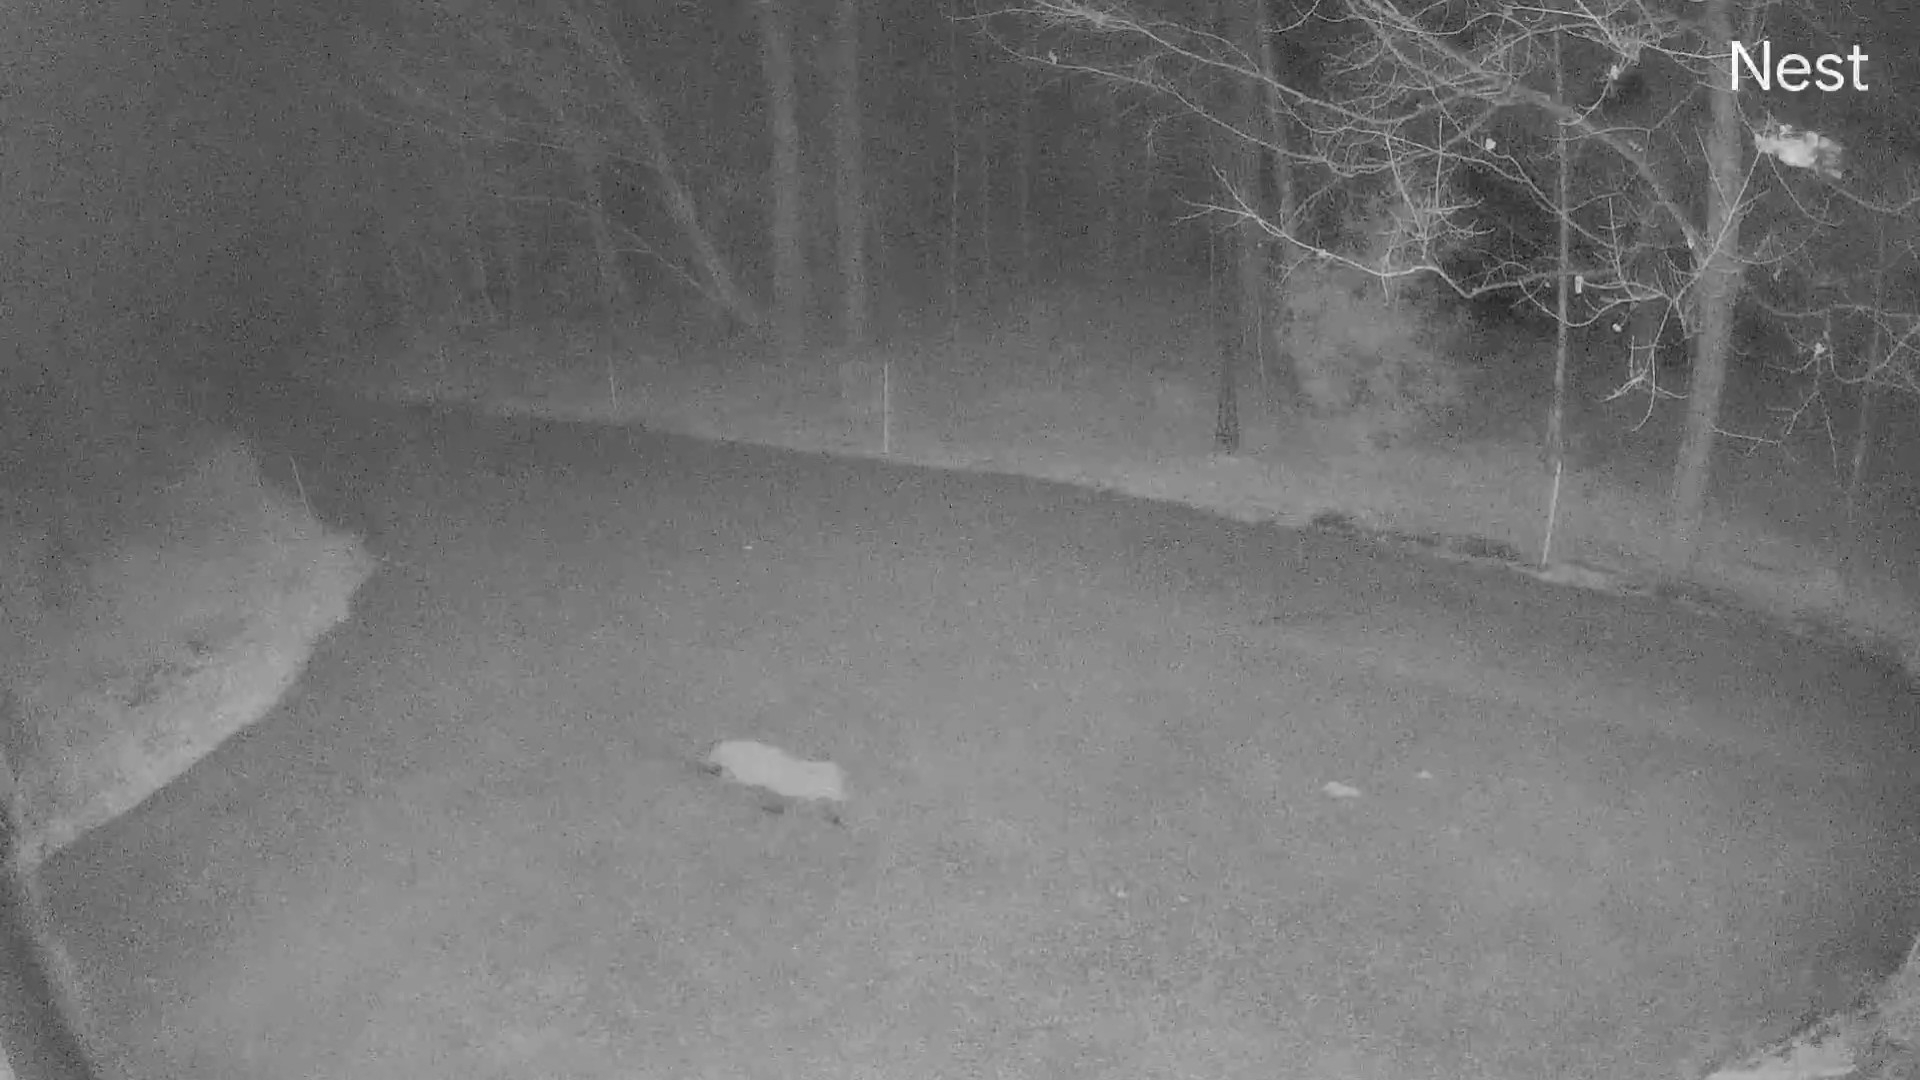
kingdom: Animalia
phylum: Chordata
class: Mammalia
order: Carnivora
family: Canidae
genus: Vulpes
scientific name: Vulpes vulpes
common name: Red fox
